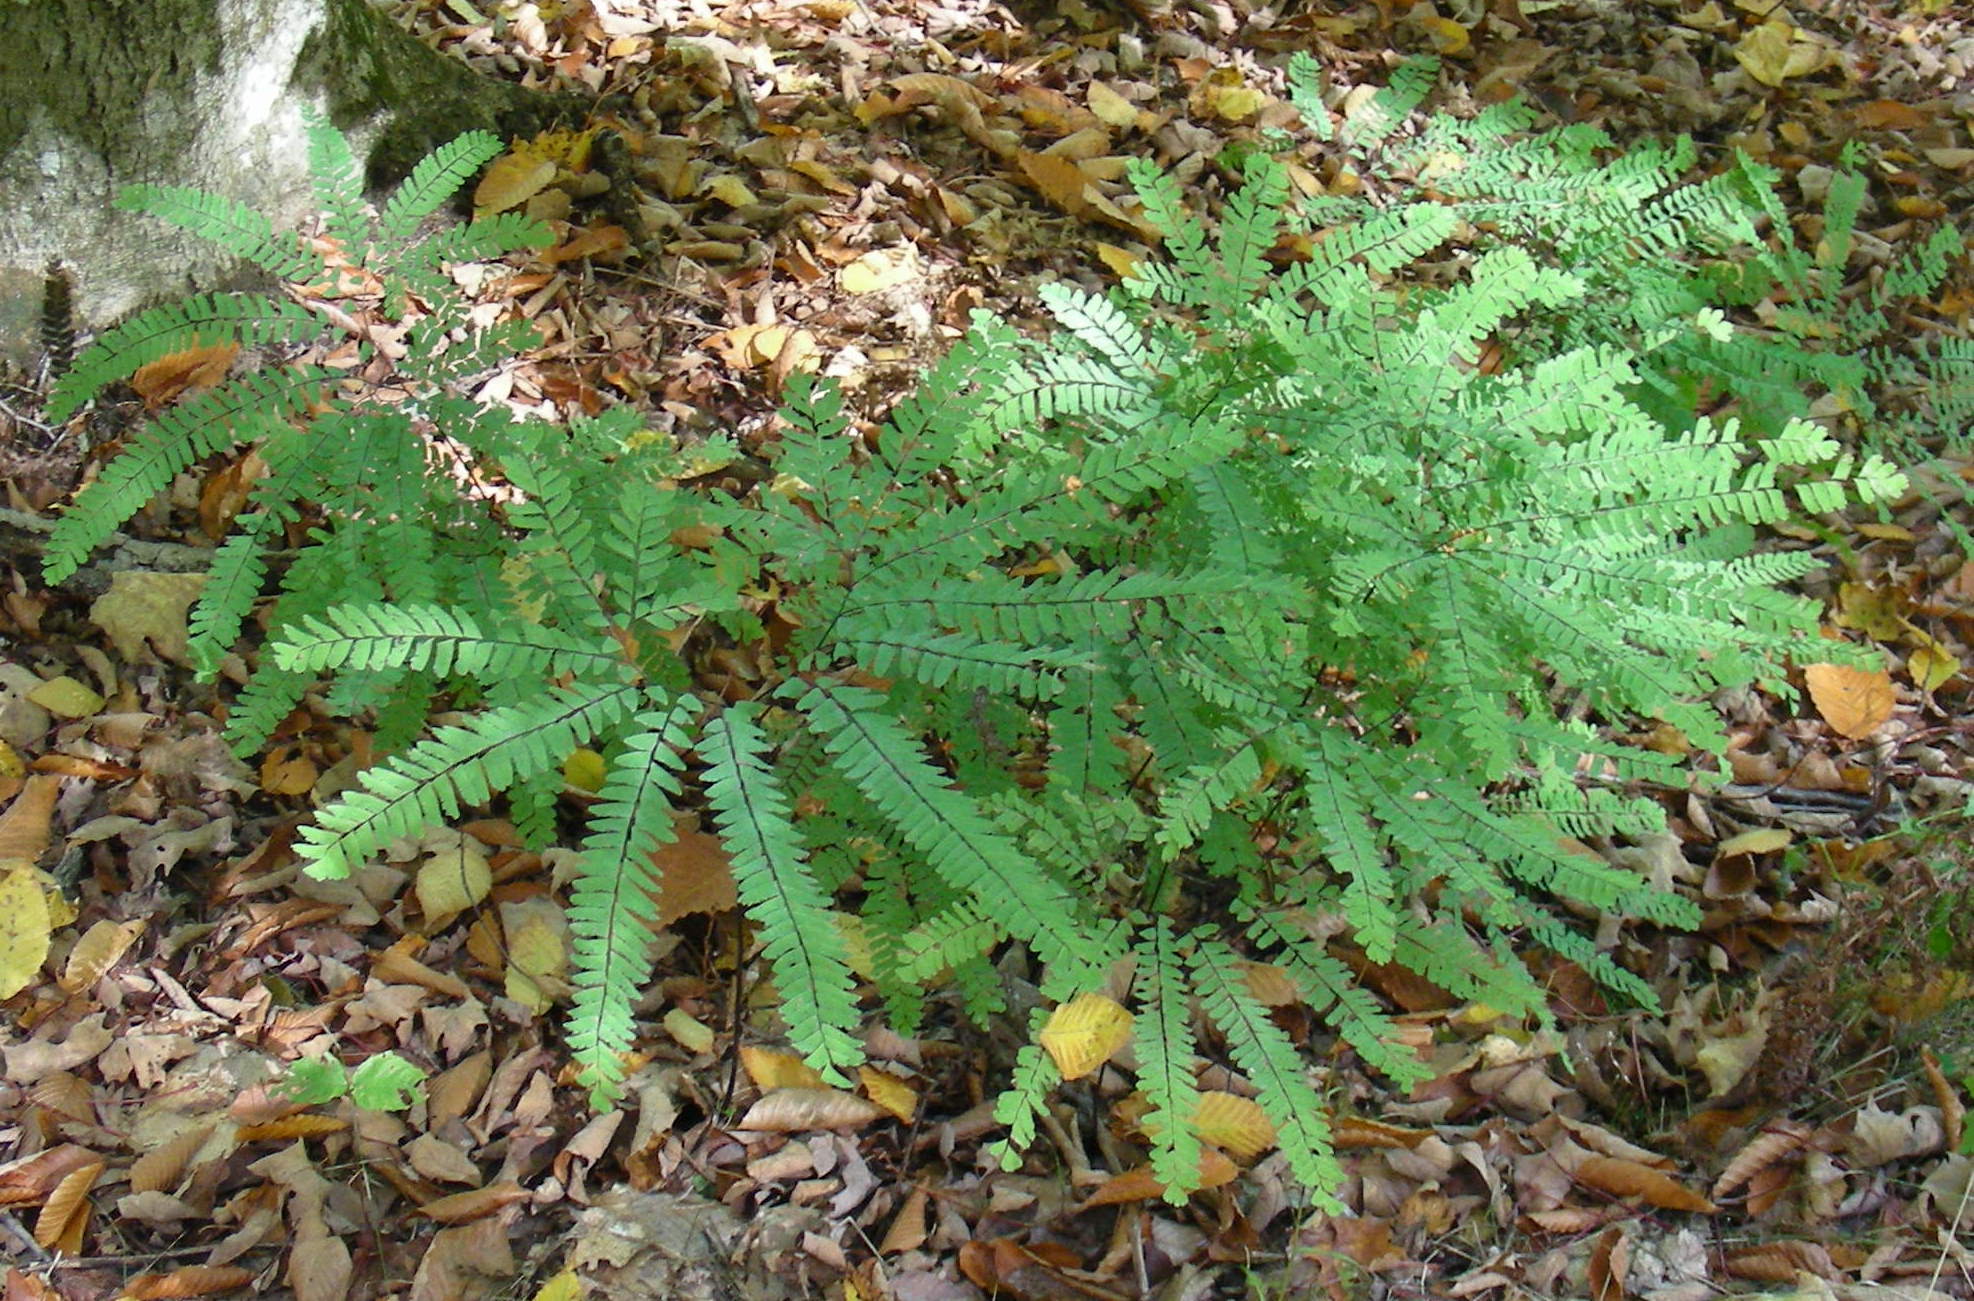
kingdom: Plantae
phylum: Tracheophyta
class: Polypodiopsida
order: Polypodiales
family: Pteridaceae
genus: Adiantum
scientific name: Adiantum pedatum
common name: Five-finger fern
